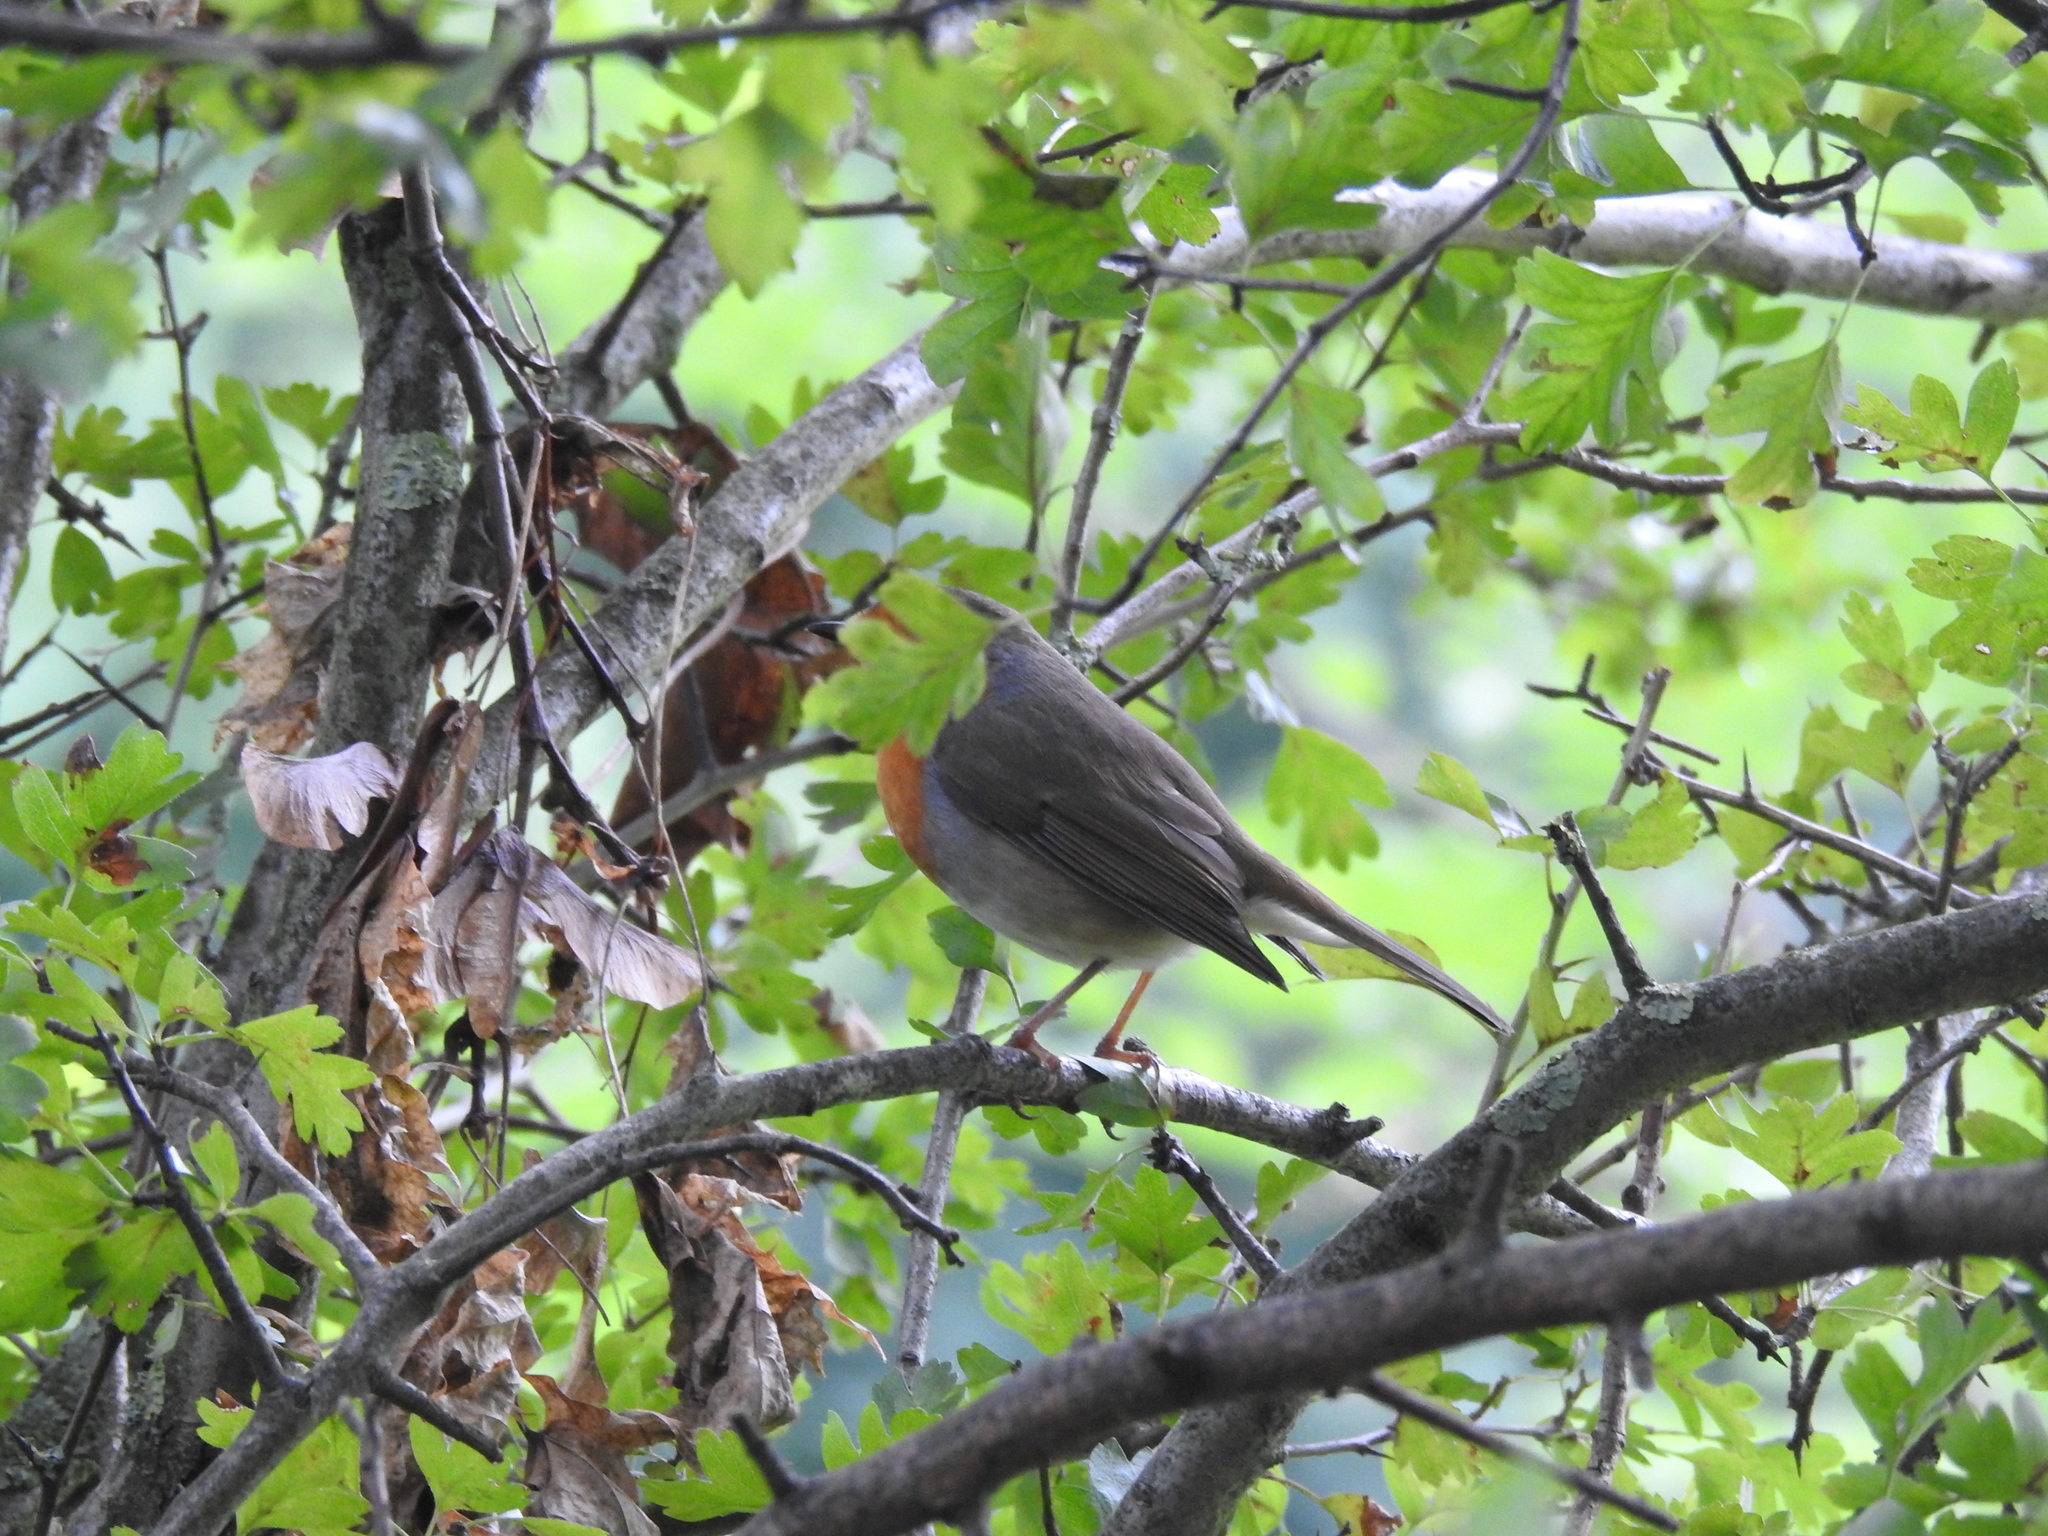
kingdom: Animalia
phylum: Chordata
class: Aves
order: Passeriformes
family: Muscicapidae
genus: Erithacus
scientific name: Erithacus rubecula
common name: European robin
